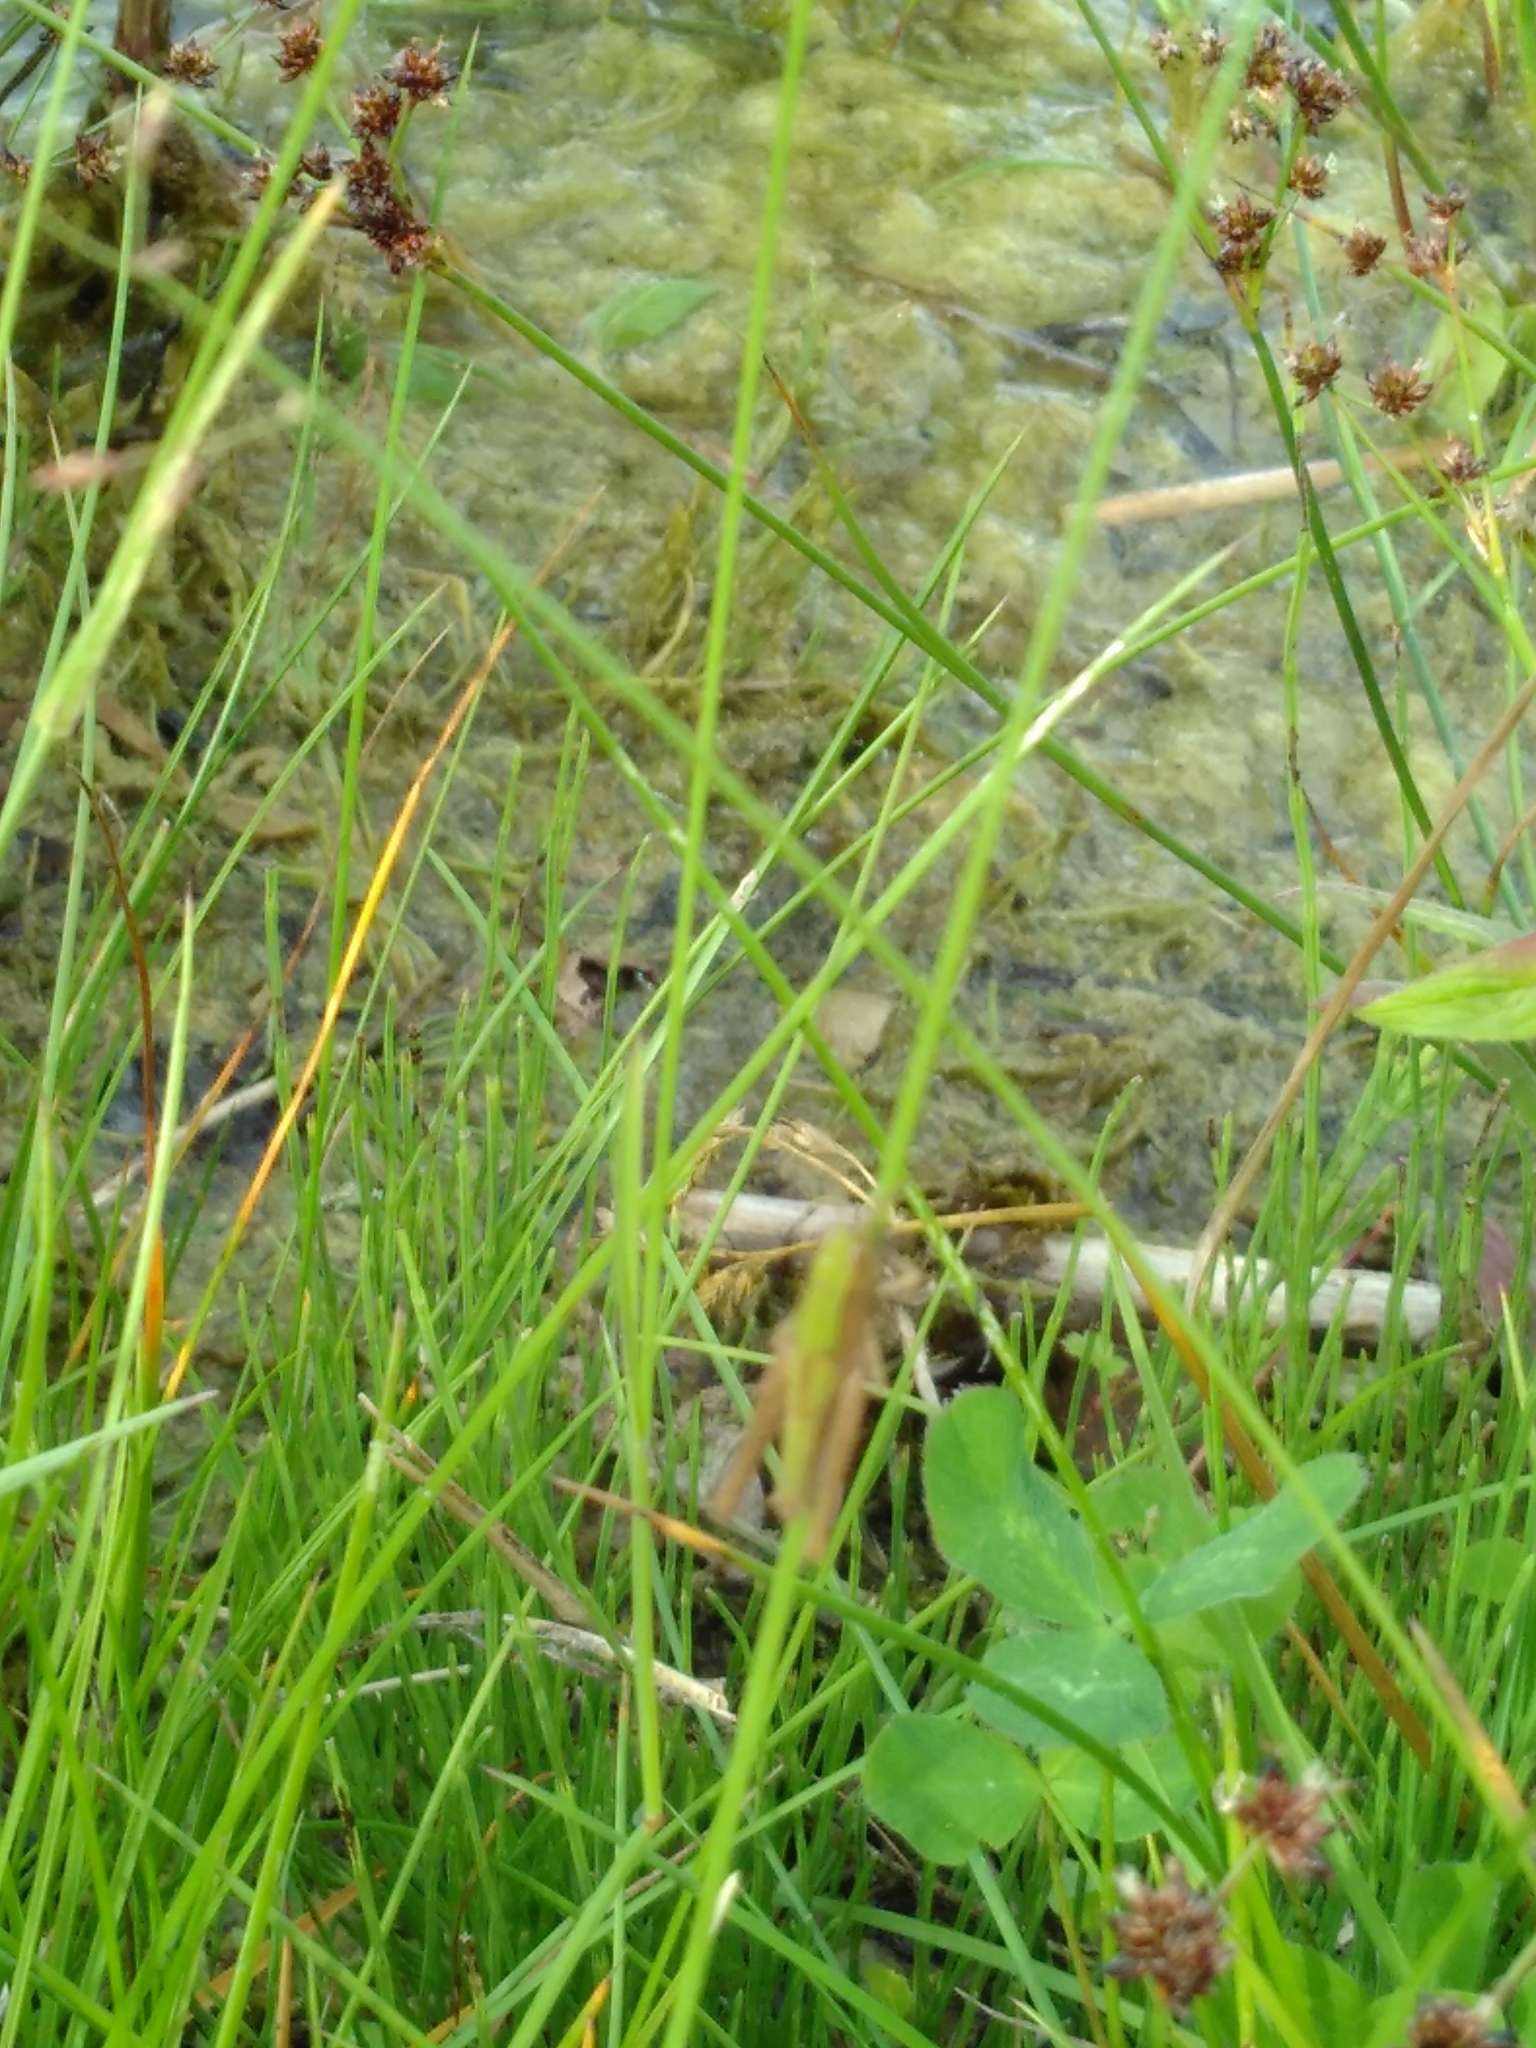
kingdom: Animalia
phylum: Arthropoda
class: Insecta
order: Orthoptera
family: Acrididae
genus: Chorthippus
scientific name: Chorthippus dorsatus
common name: Steppe grasshopper
